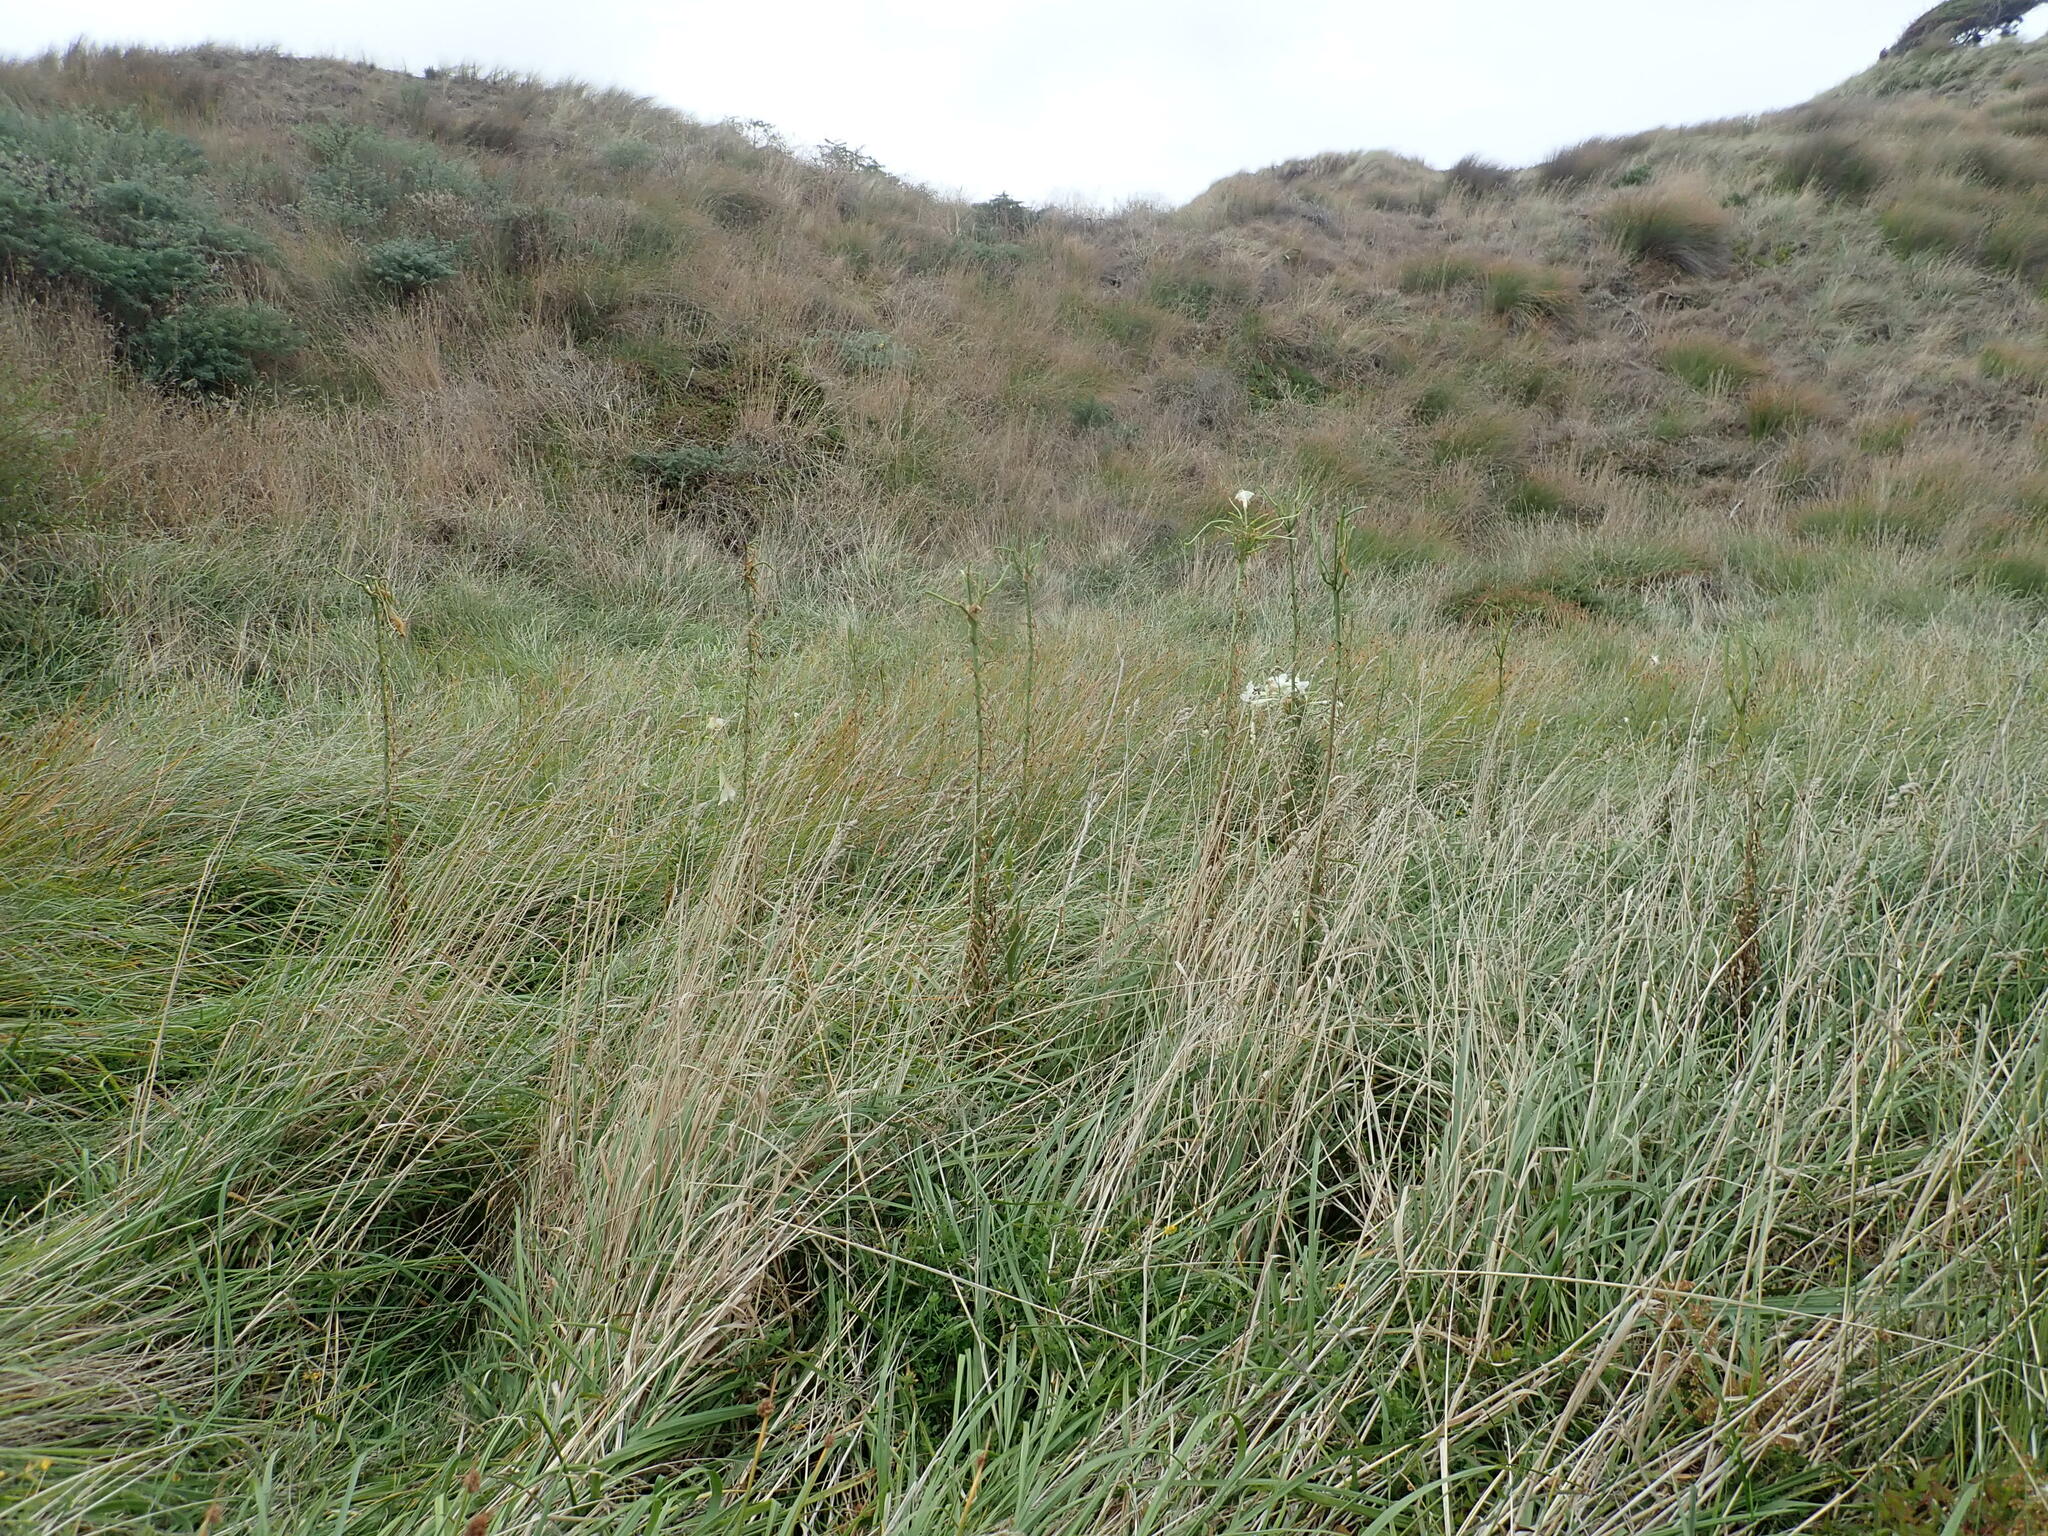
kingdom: Plantae
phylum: Tracheophyta
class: Liliopsida
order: Liliales
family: Liliaceae
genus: Lilium
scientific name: Lilium formosanum
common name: Formosa lily
